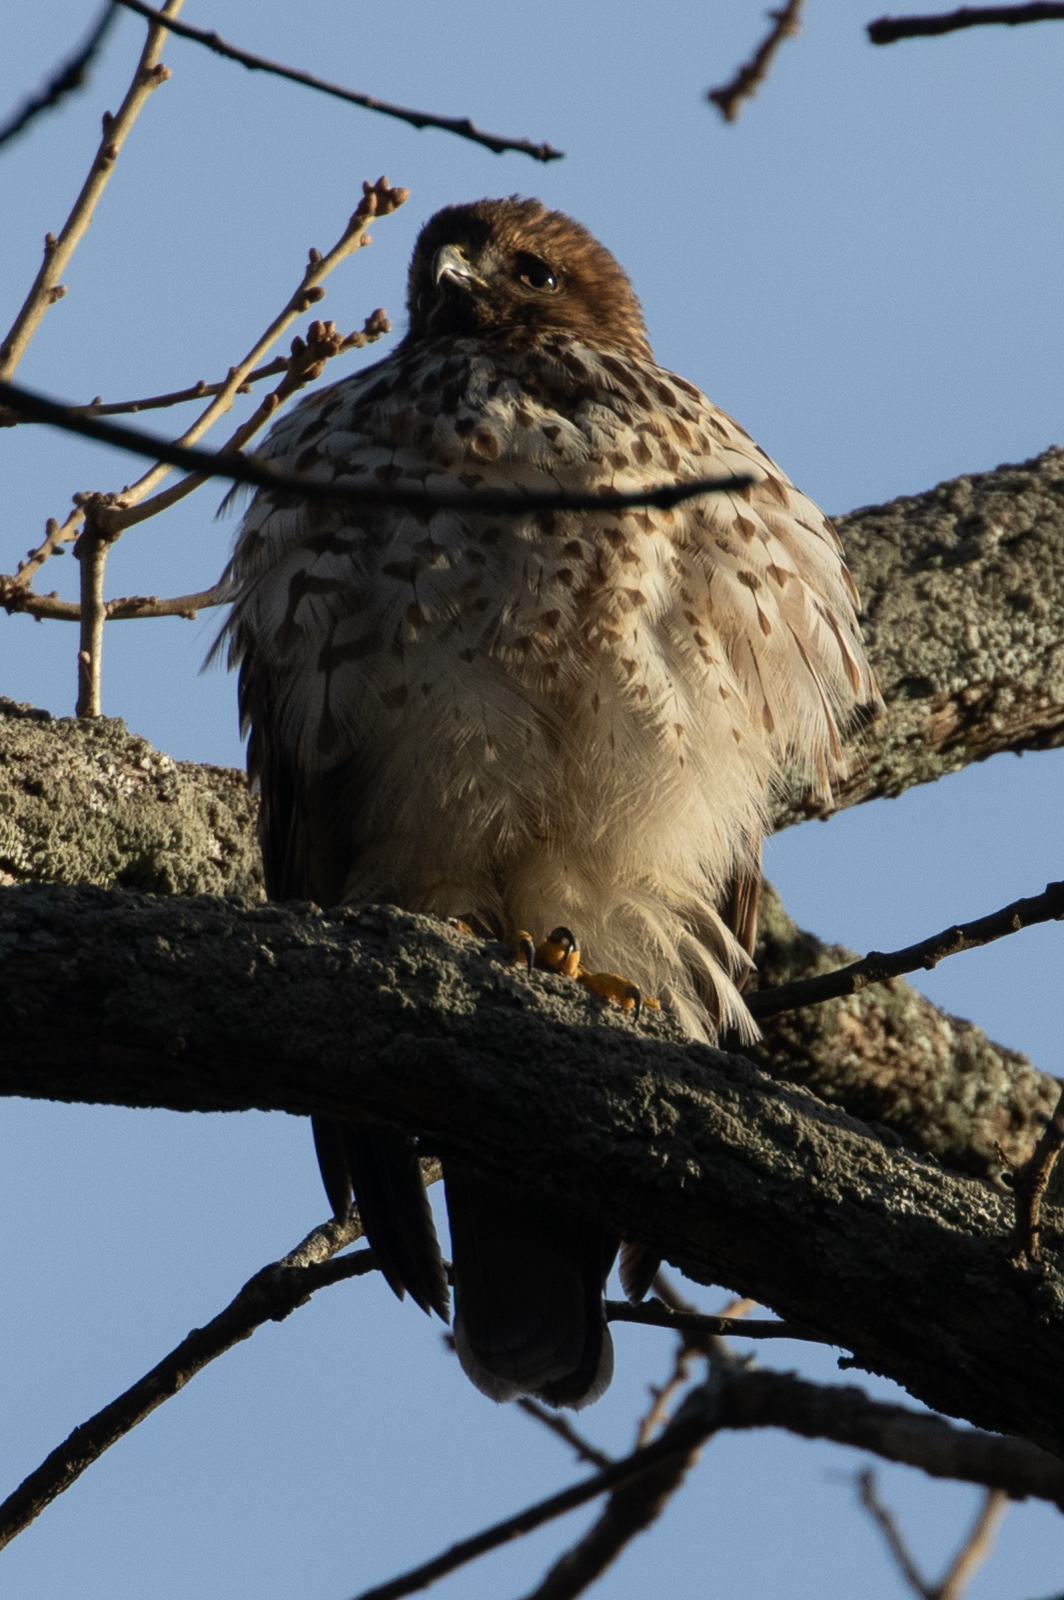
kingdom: Animalia
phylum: Chordata
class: Aves
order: Accipitriformes
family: Accipitridae
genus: Buteo
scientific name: Buteo lineatus
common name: Red-shouldered hawk
